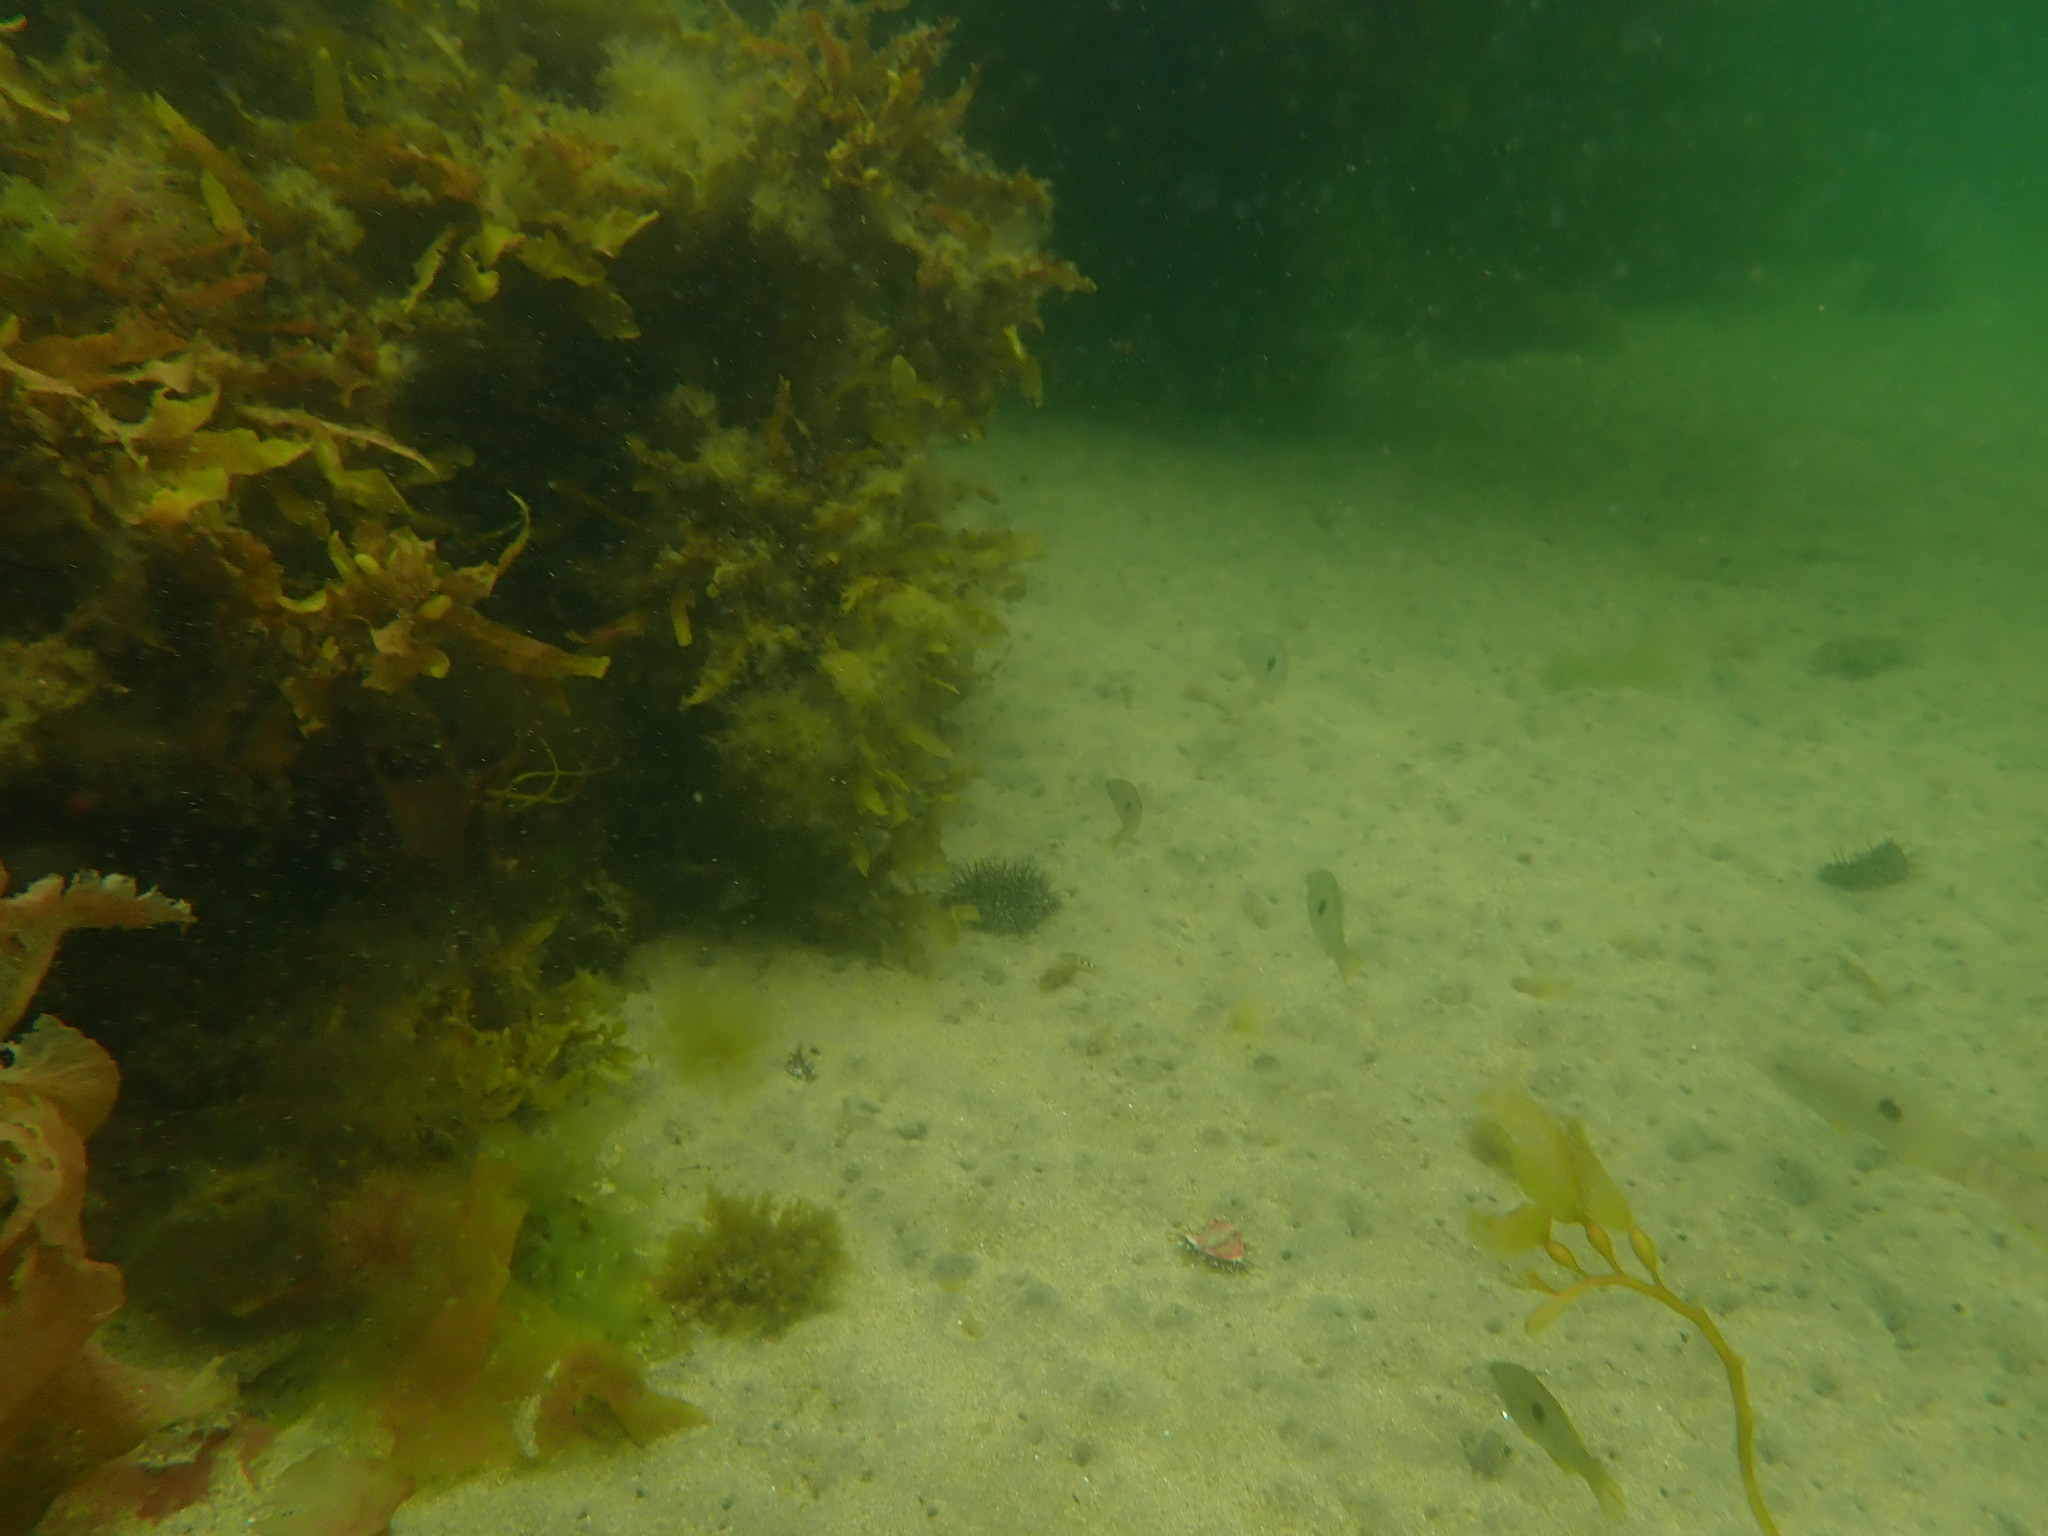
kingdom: Animalia
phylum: Chordata
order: Perciformes
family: Labridae
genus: Notolabrus
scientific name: Notolabrus celidotus
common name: Spotty
